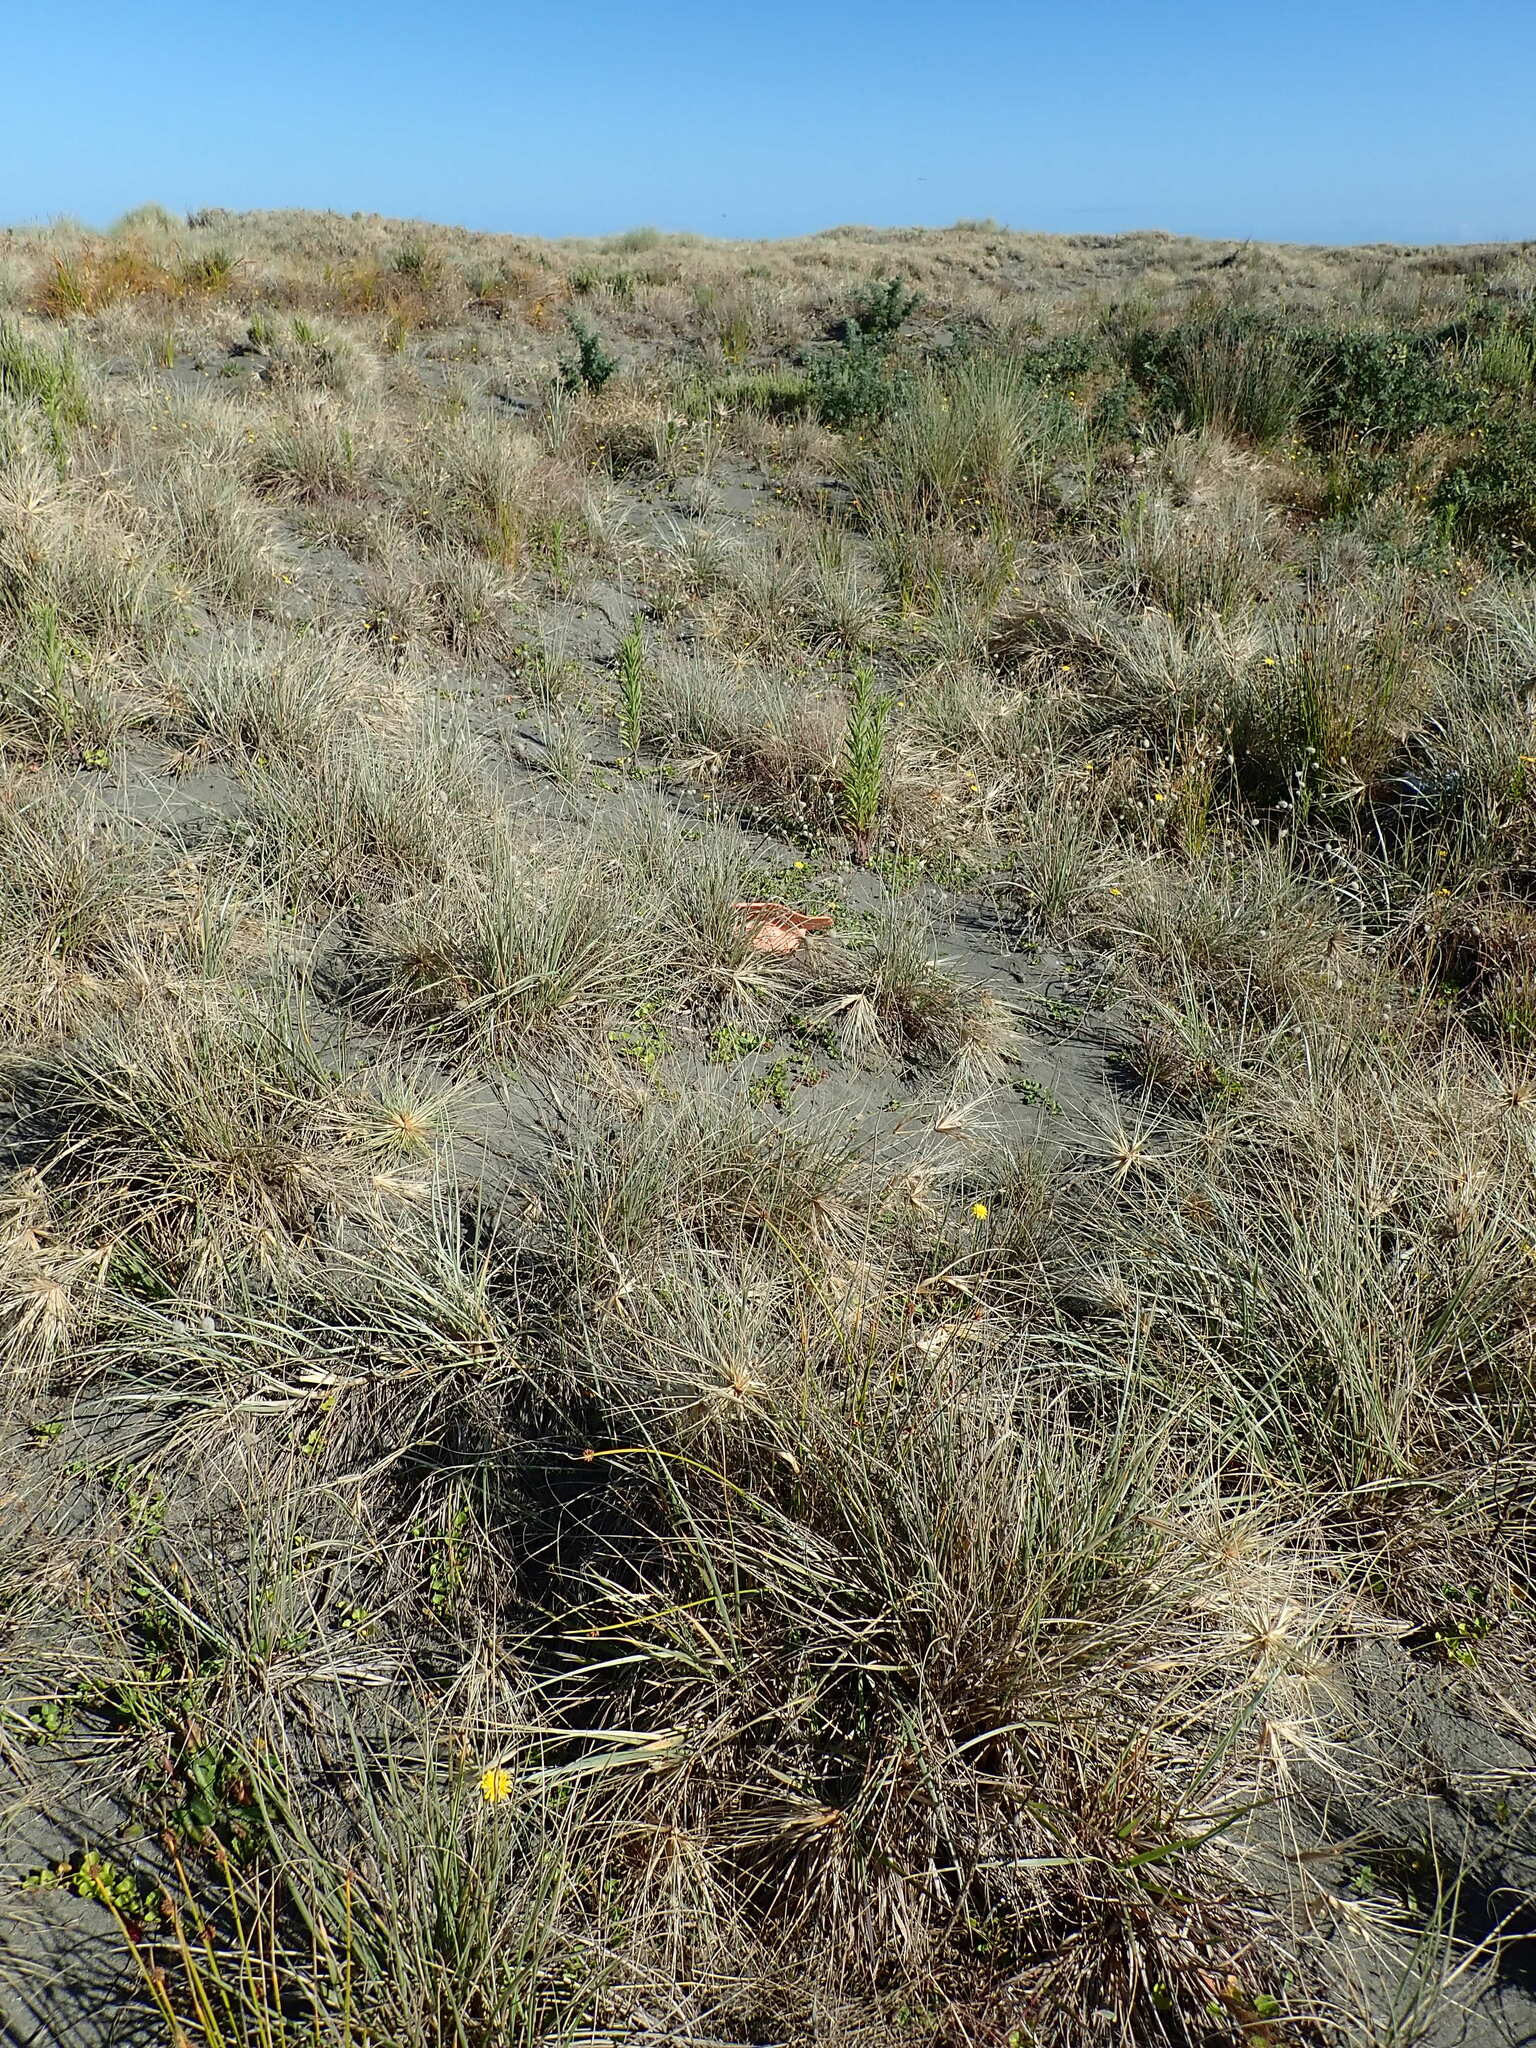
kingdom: Plantae
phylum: Tracheophyta
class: Magnoliopsida
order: Solanales
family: Convolvulaceae
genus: Calystegia
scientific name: Calystegia soldanella
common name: Sea bindweed
